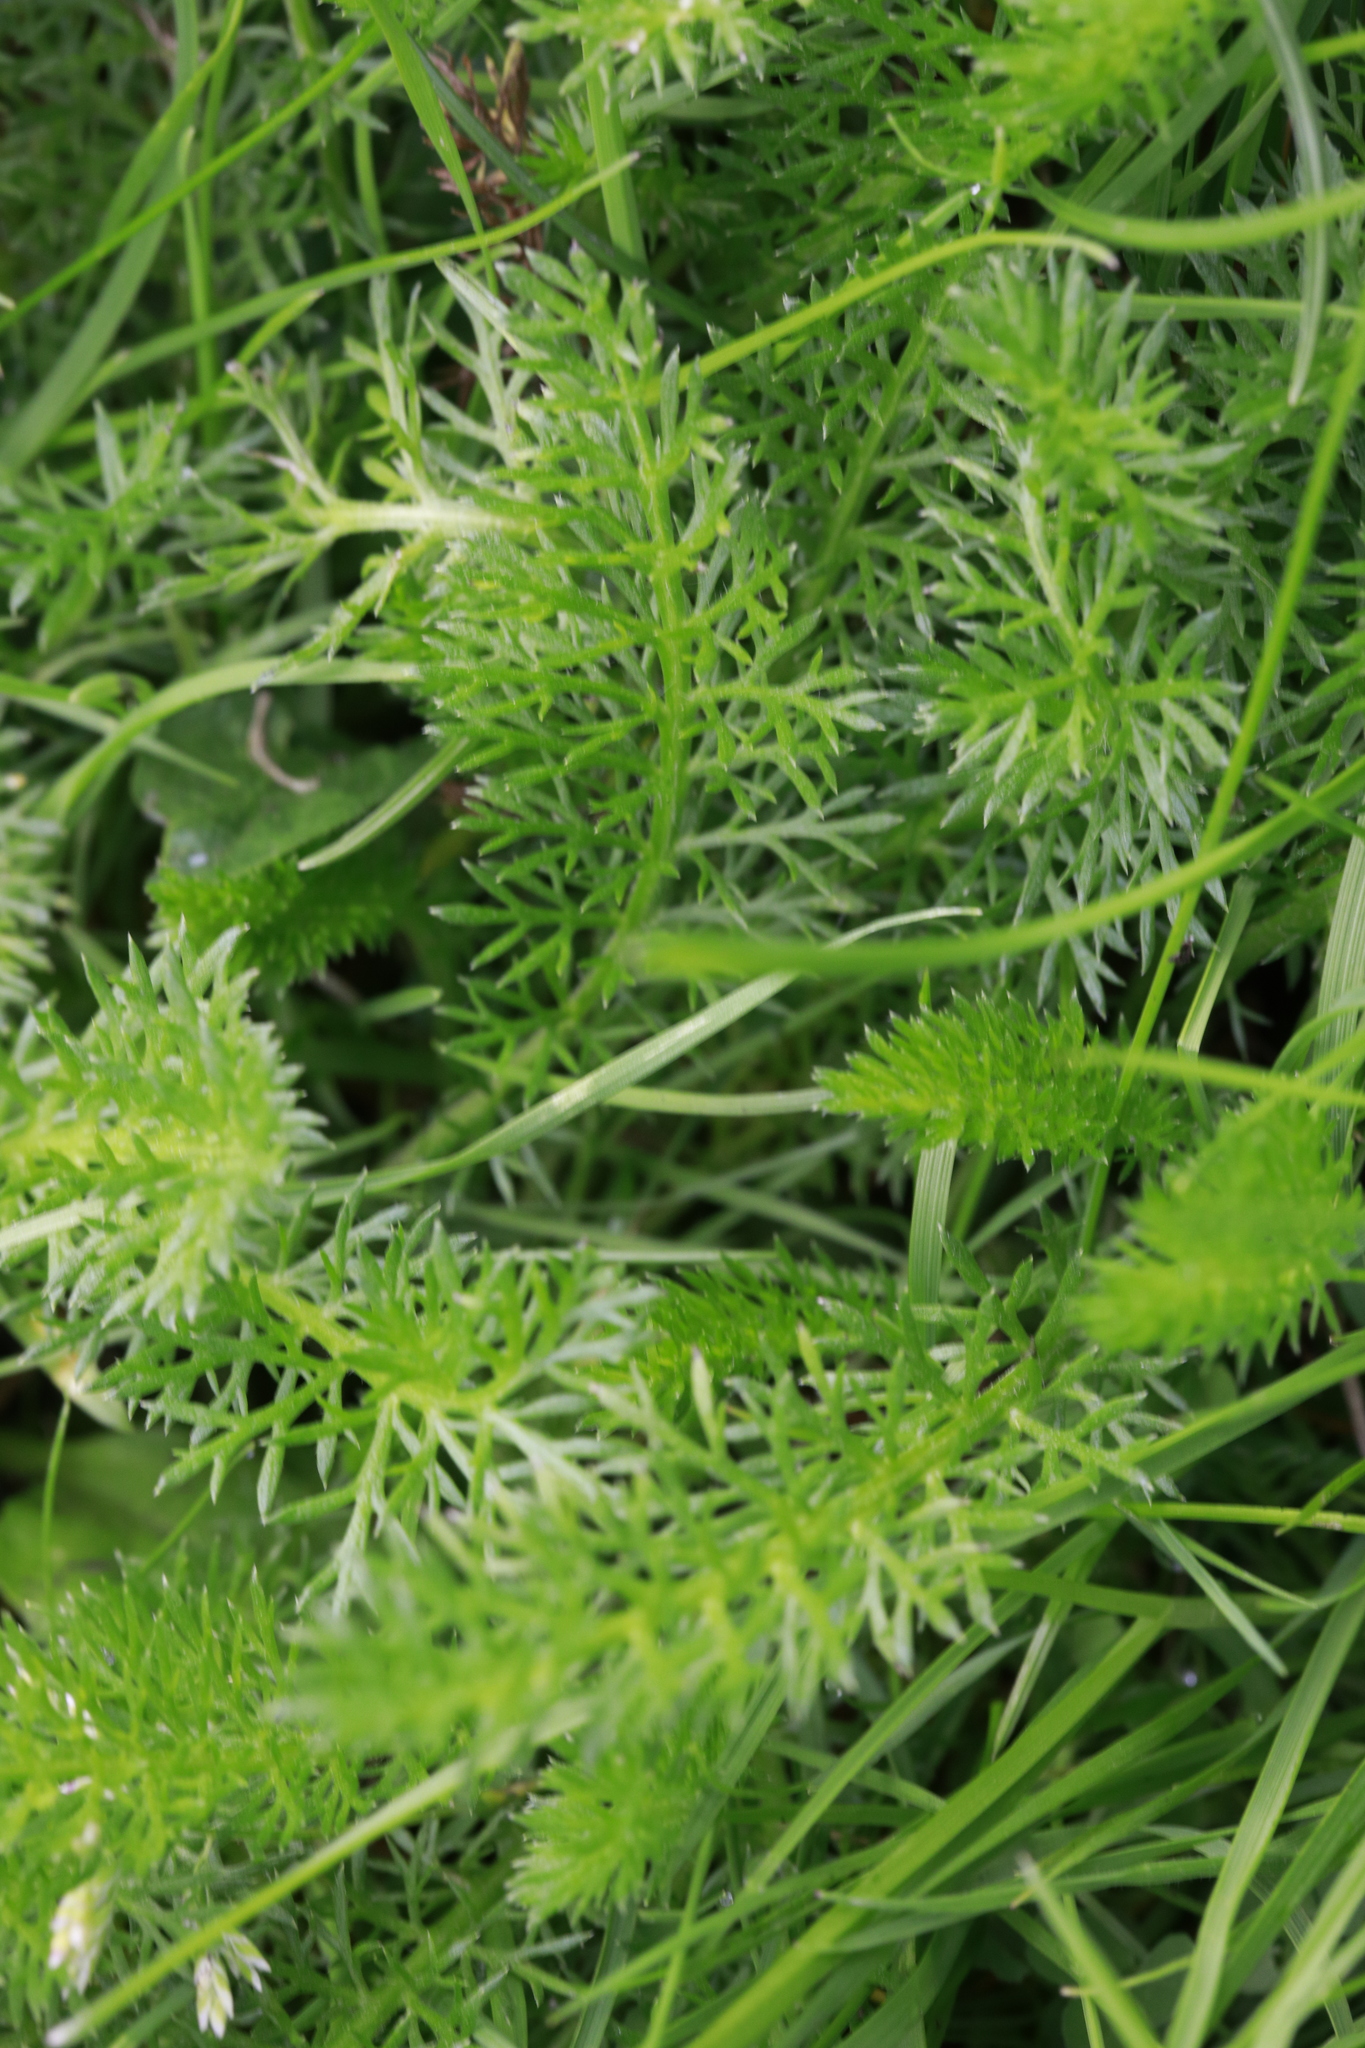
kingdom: Plantae
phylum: Tracheophyta
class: Magnoliopsida
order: Asterales
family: Asteraceae
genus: Achillea
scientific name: Achillea millefolium
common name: Yarrow
